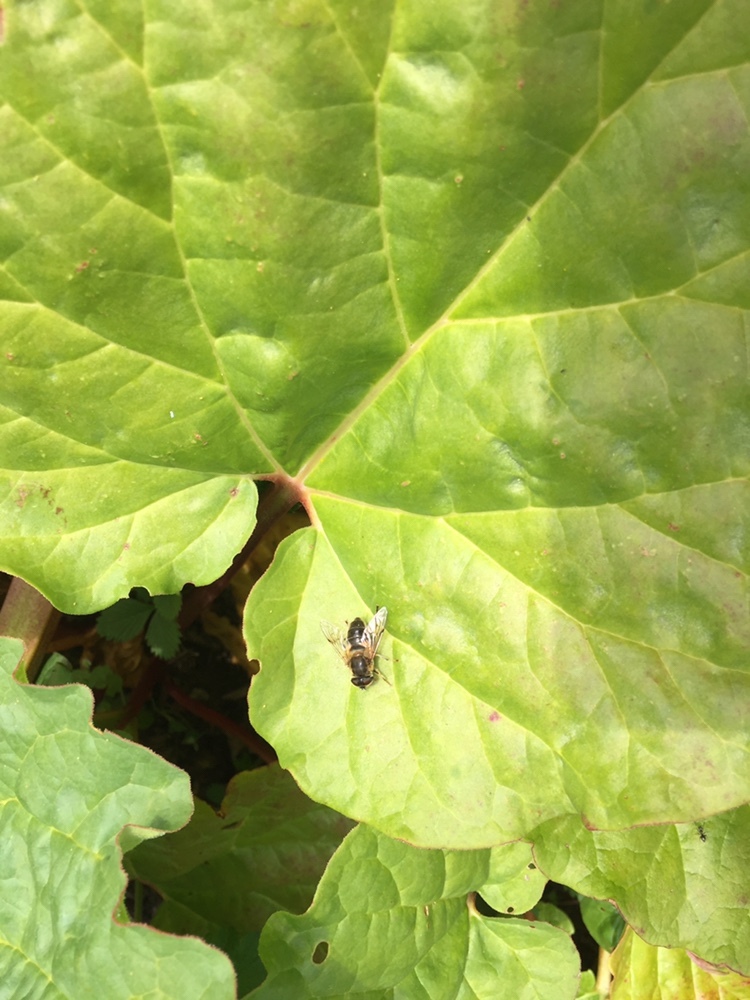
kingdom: Animalia
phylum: Arthropoda
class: Insecta
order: Diptera
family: Syrphidae
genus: Eristalis
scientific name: Eristalis pertinax
